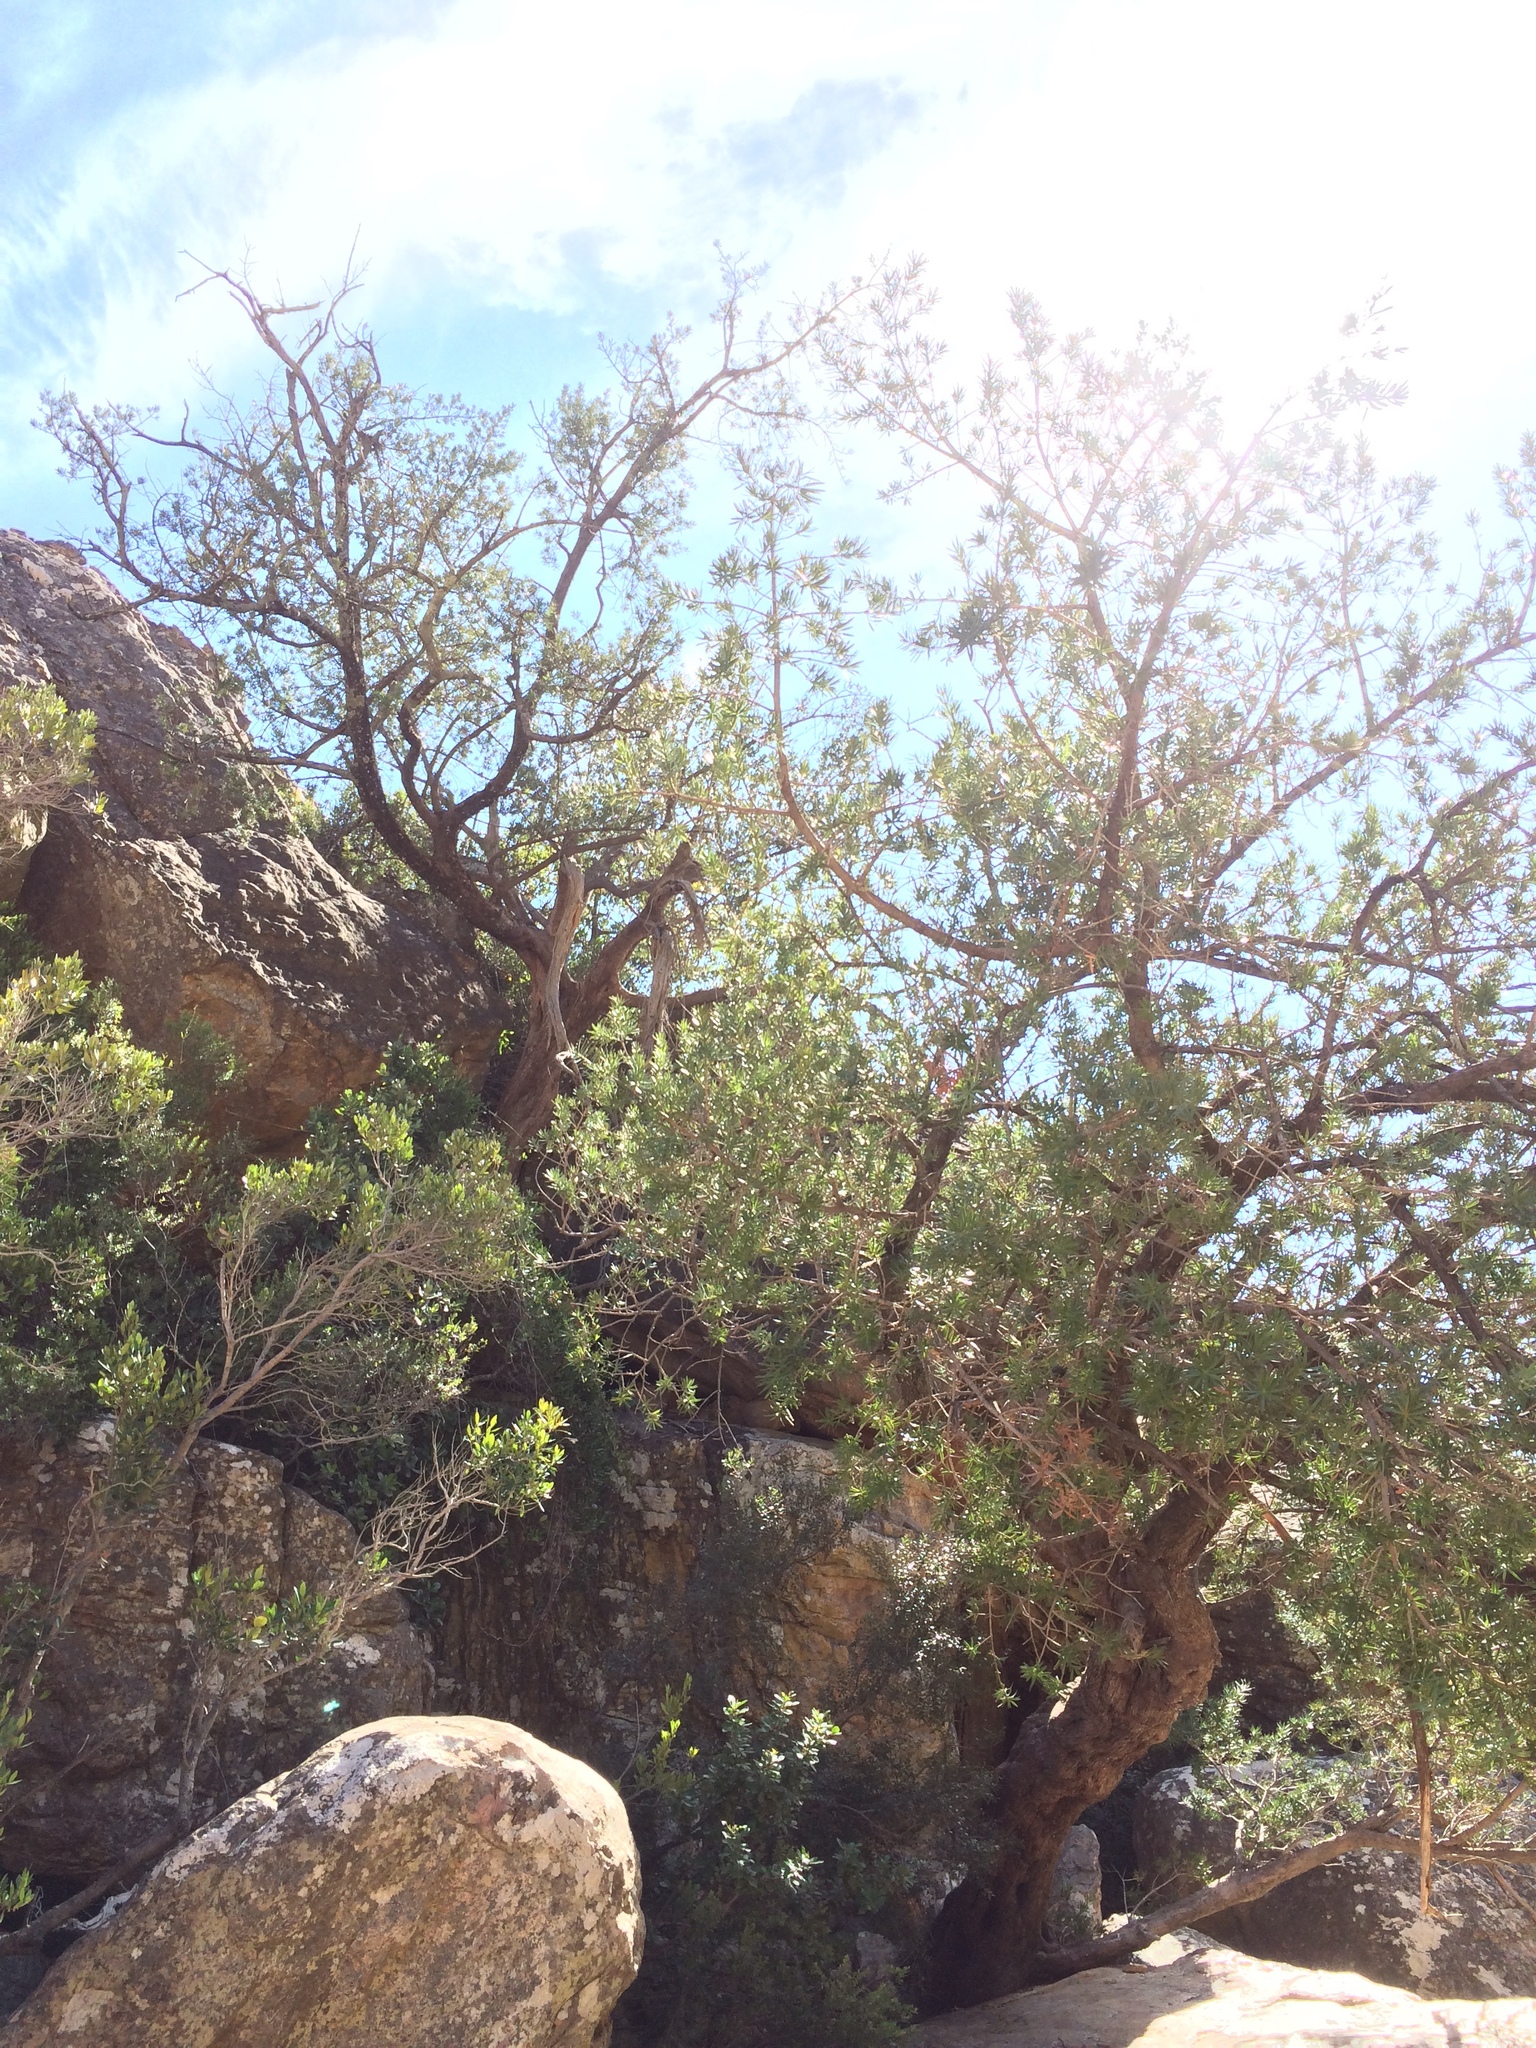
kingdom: Plantae
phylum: Tracheophyta
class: Pinopsida
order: Pinales
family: Podocarpaceae
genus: Podocarpus
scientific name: Podocarpus elongatus
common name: Breede river yellowwood
